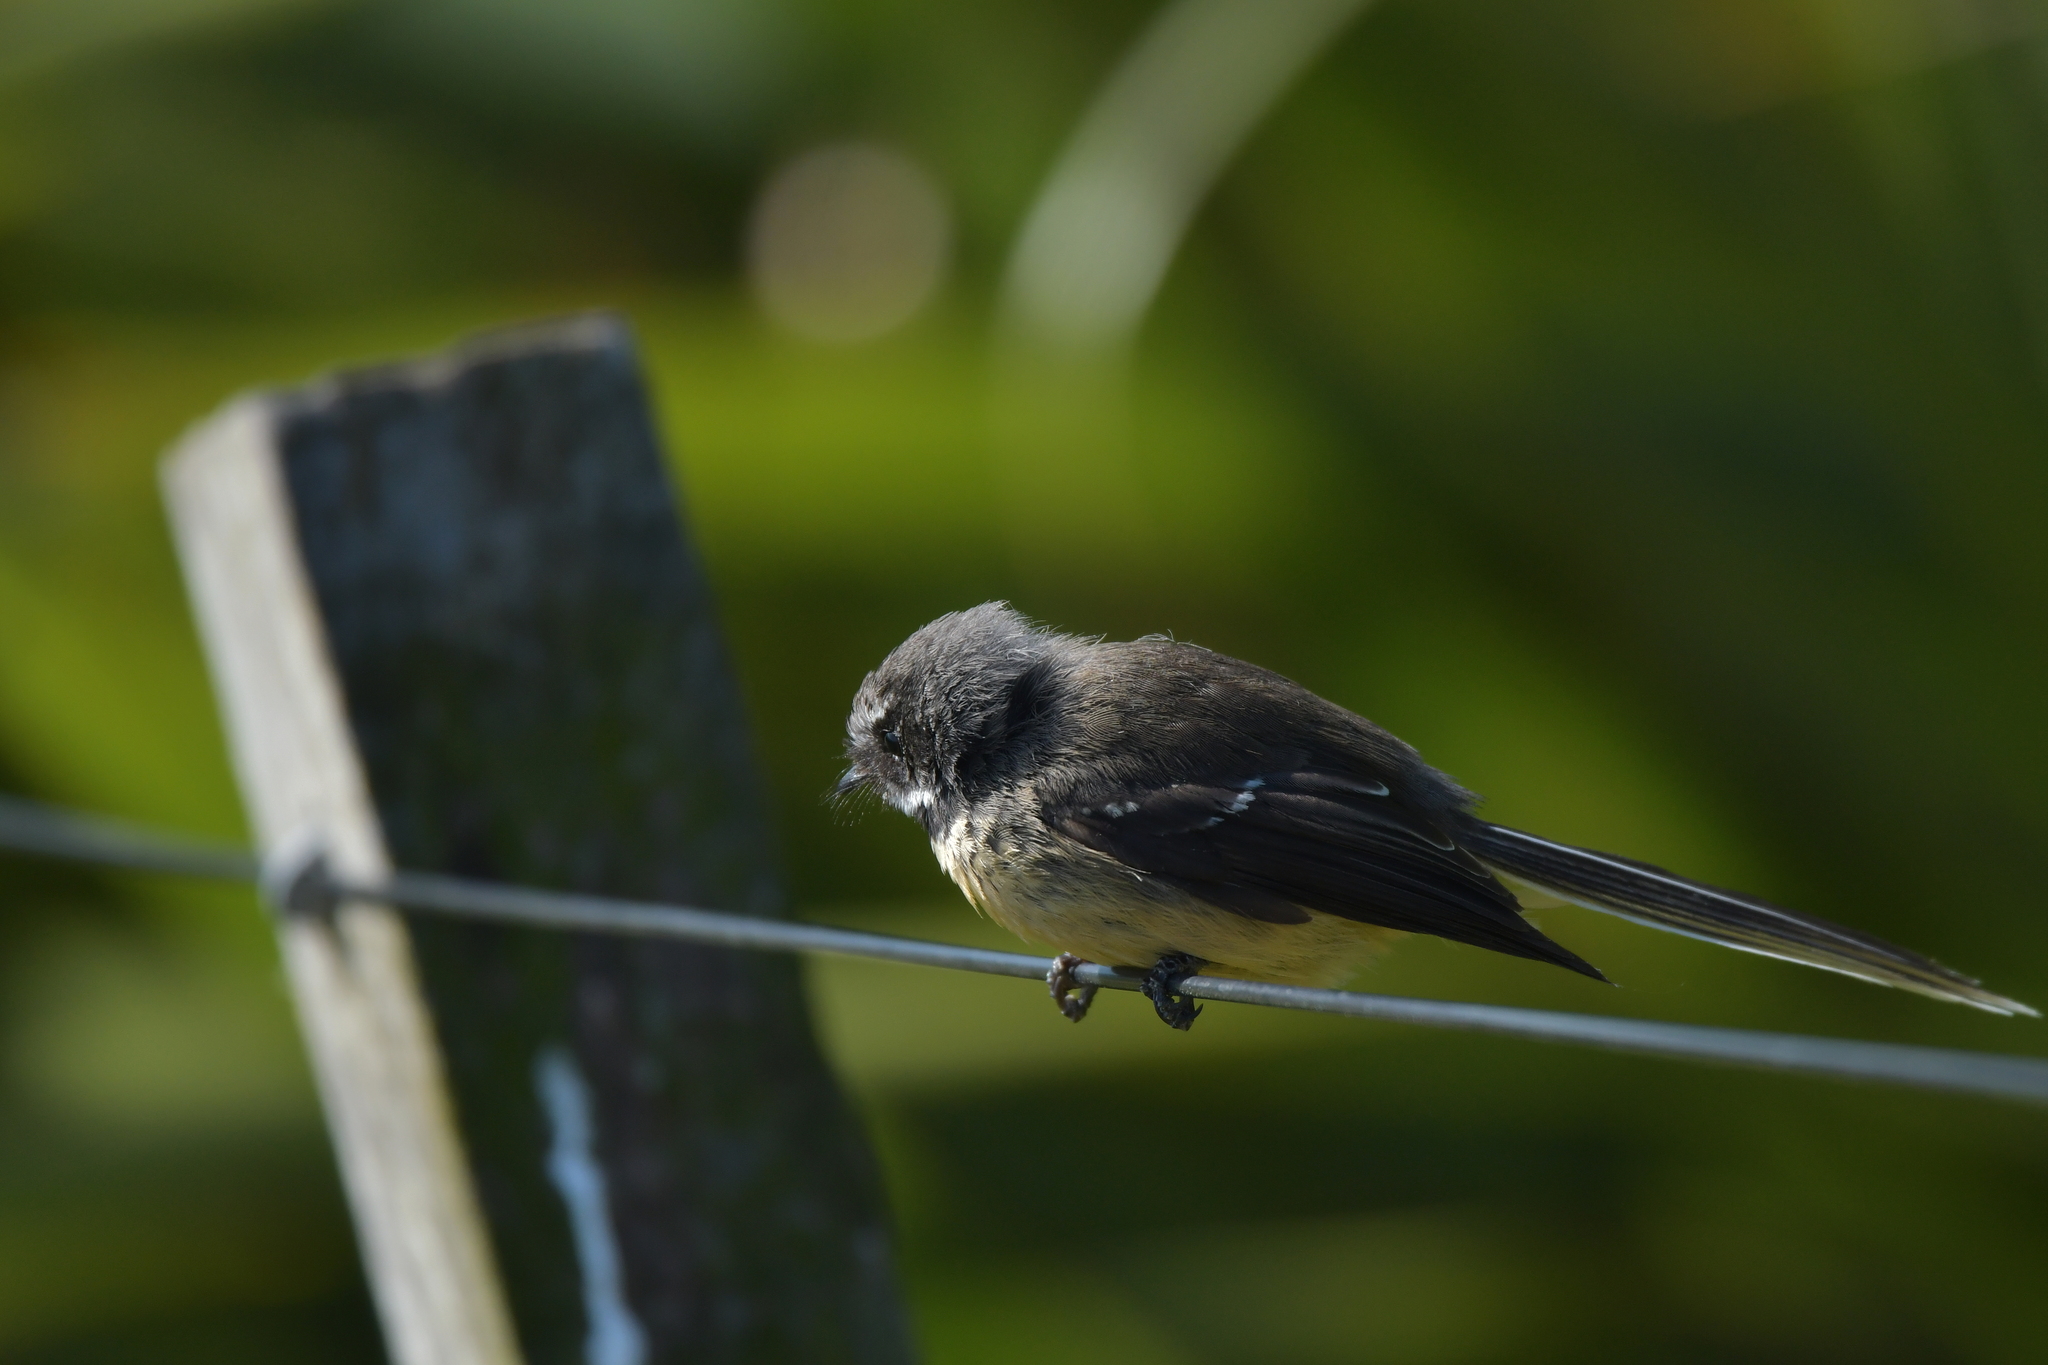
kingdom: Animalia
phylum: Chordata
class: Aves
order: Passeriformes
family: Rhipiduridae
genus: Rhipidura
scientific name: Rhipidura fuliginosa
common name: New zealand fantail
